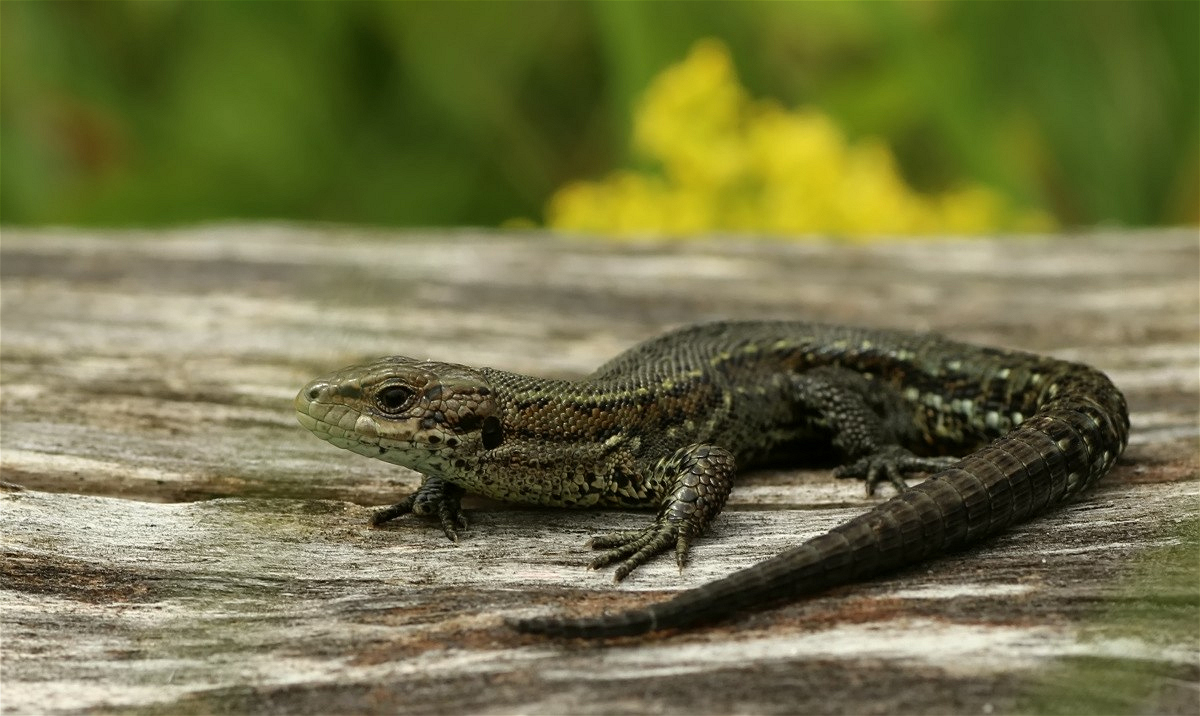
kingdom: Animalia
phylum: Chordata
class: Squamata
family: Lacertidae
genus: Zootoca
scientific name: Zootoca vivipara
